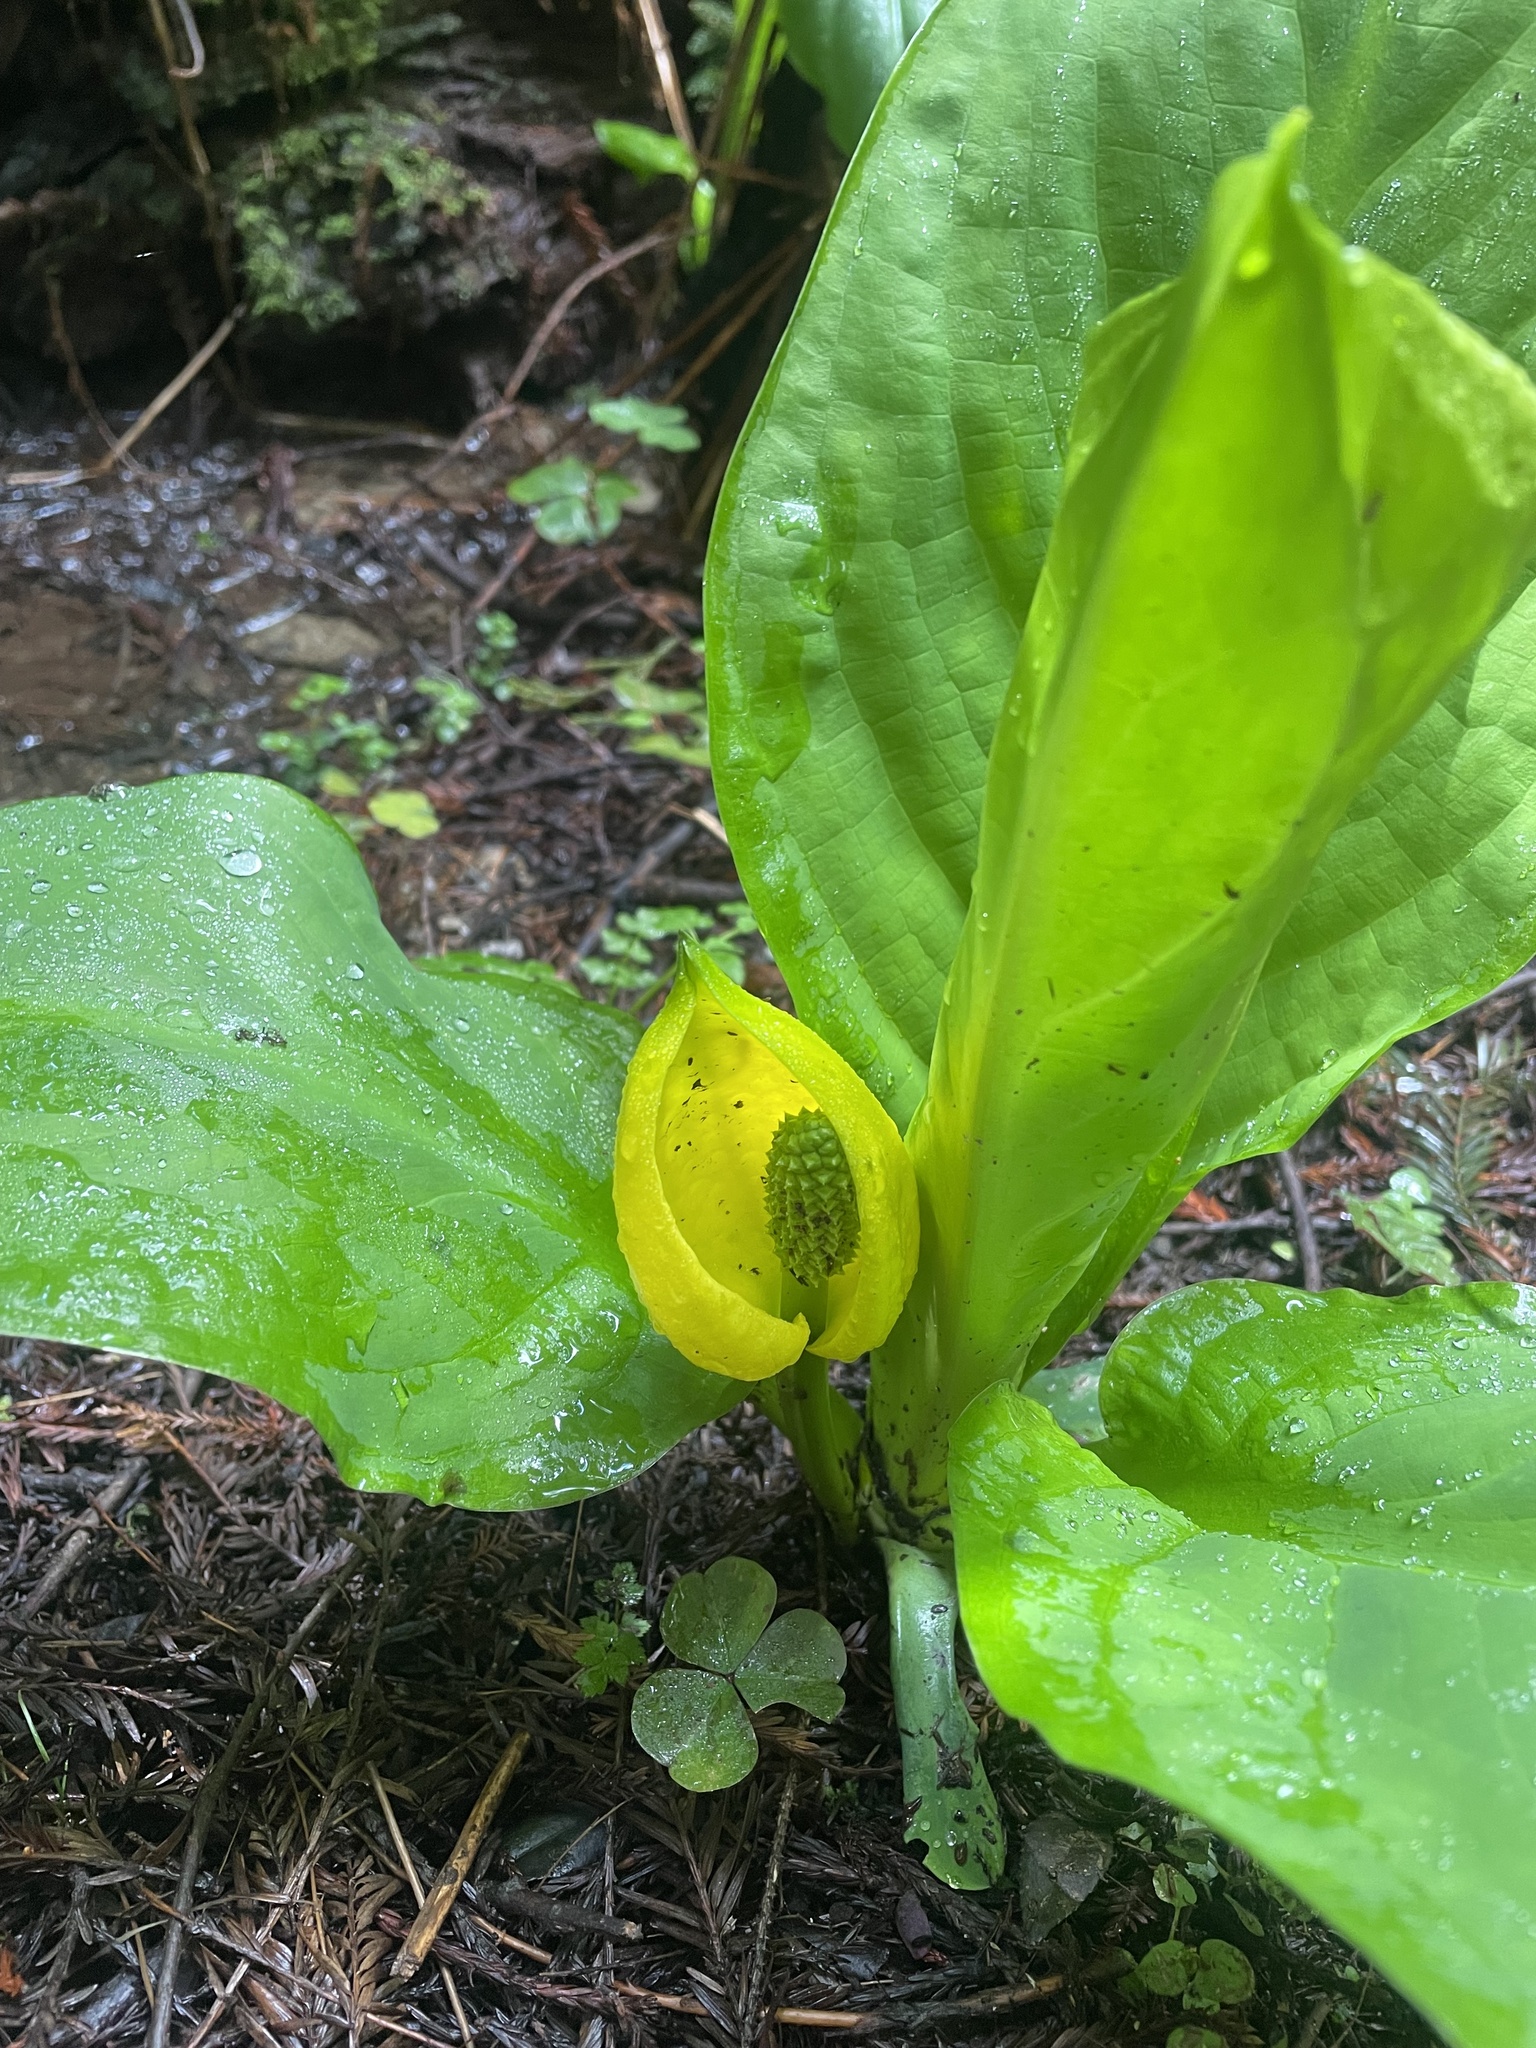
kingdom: Plantae
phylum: Tracheophyta
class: Liliopsida
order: Alismatales
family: Araceae
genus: Lysichiton
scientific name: Lysichiton americanus
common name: American skunk cabbage
